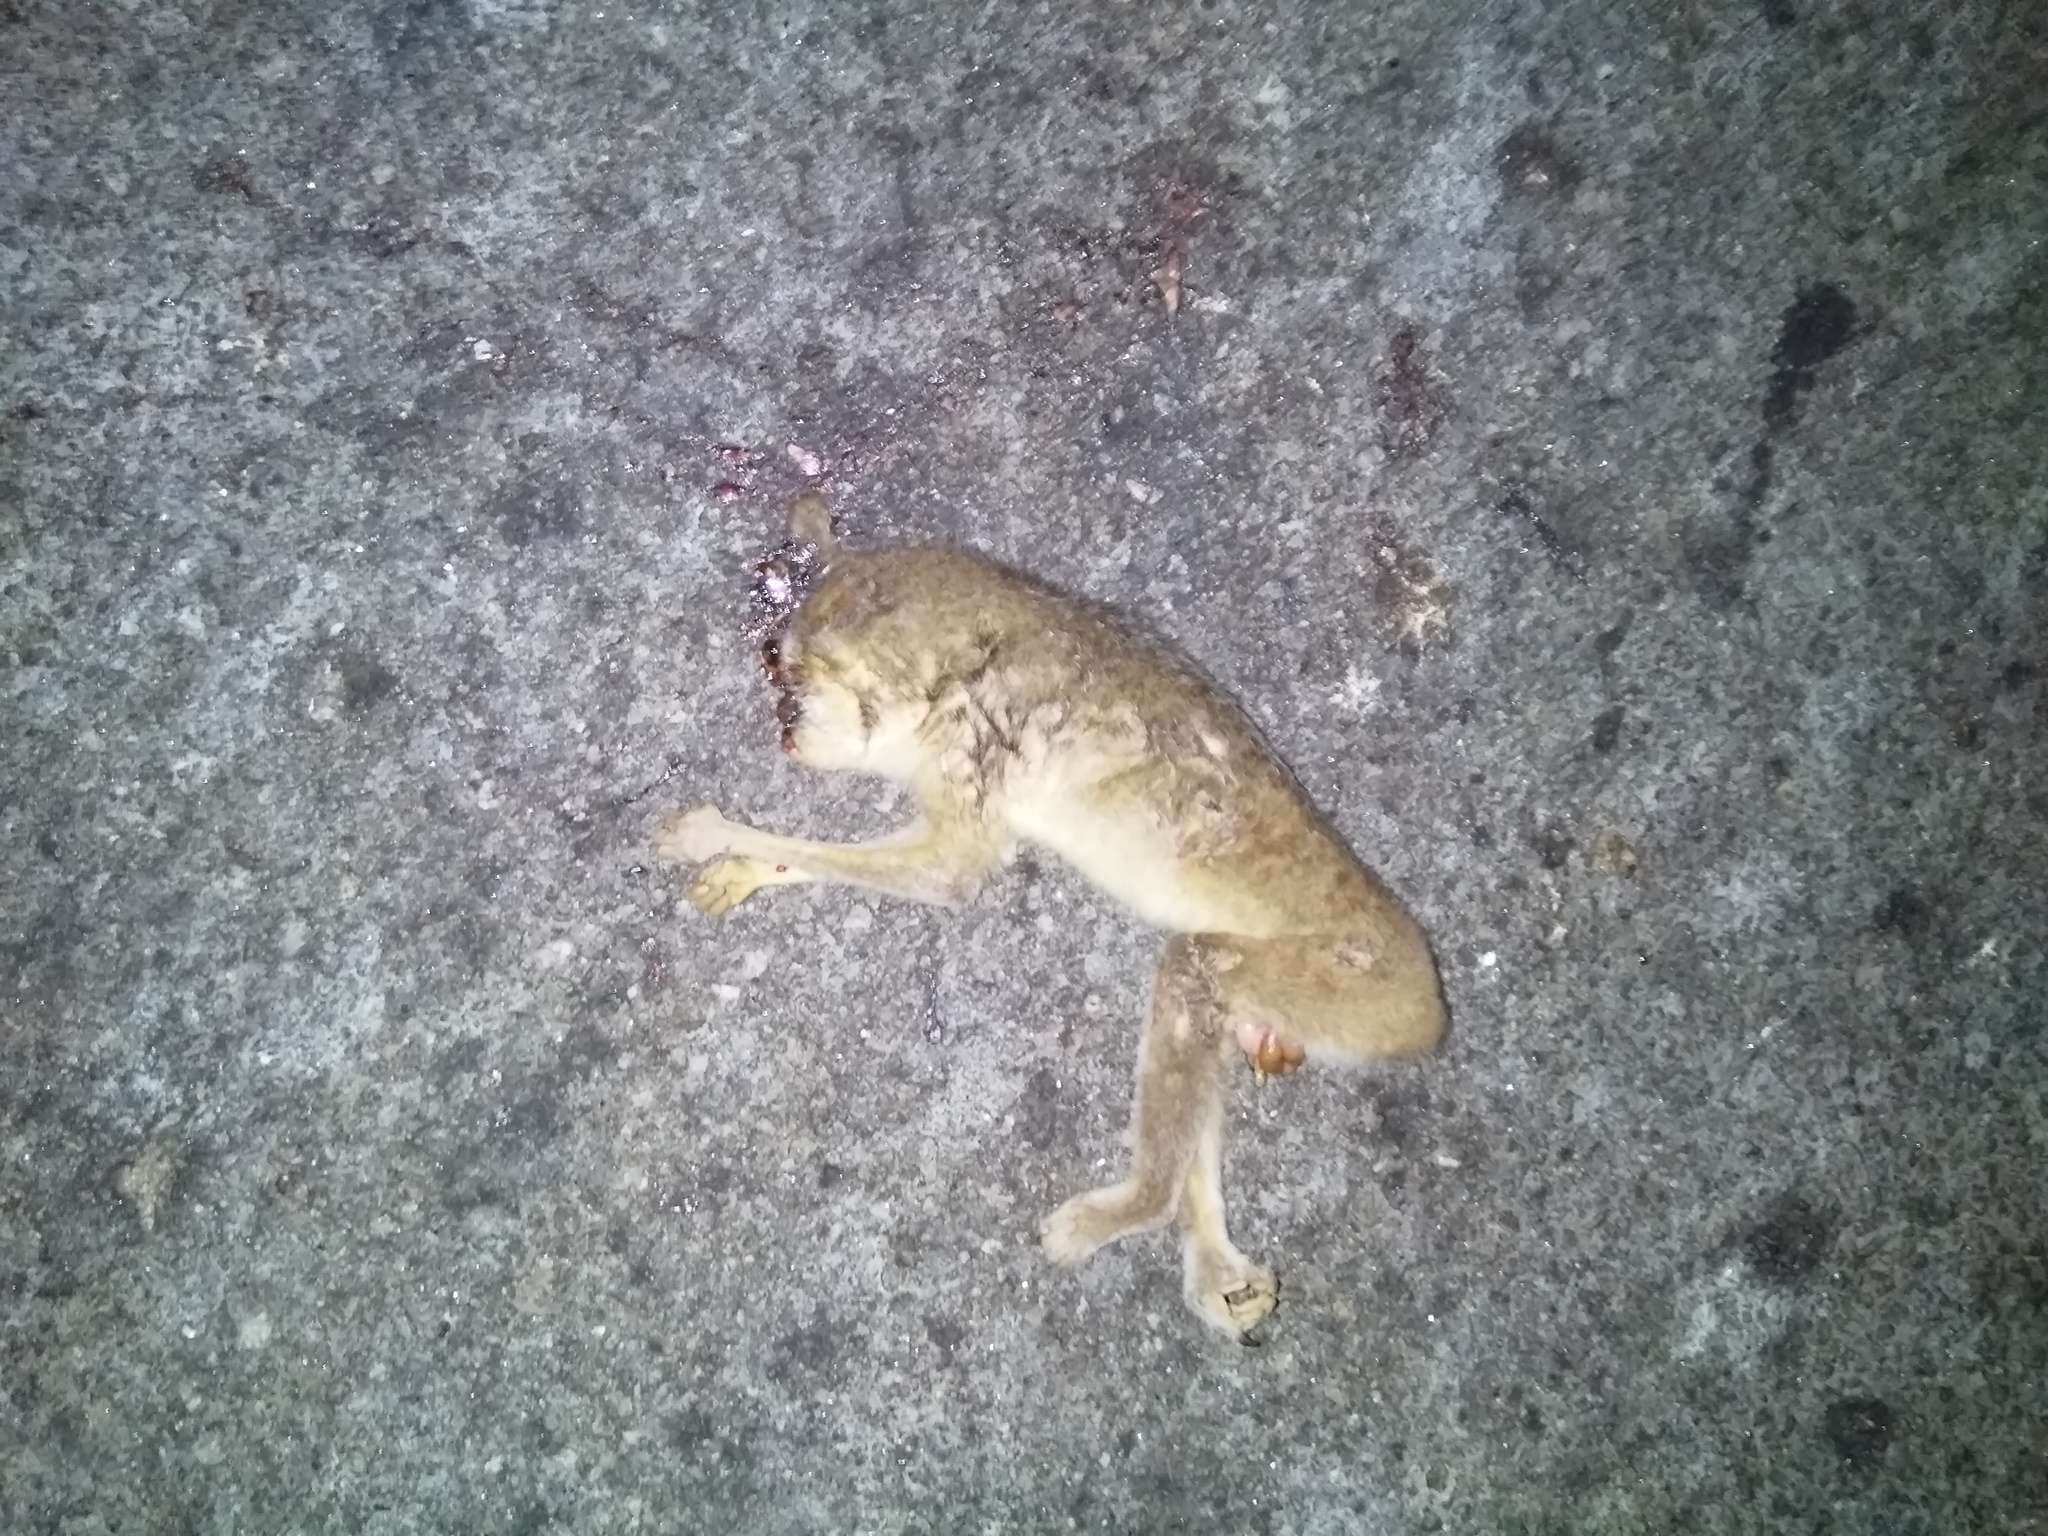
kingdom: Animalia
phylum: Chordata
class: Mammalia
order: Primates
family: Lorisidae
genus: Loris
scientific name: Loris lydekkerianus
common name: Gray slender loris
